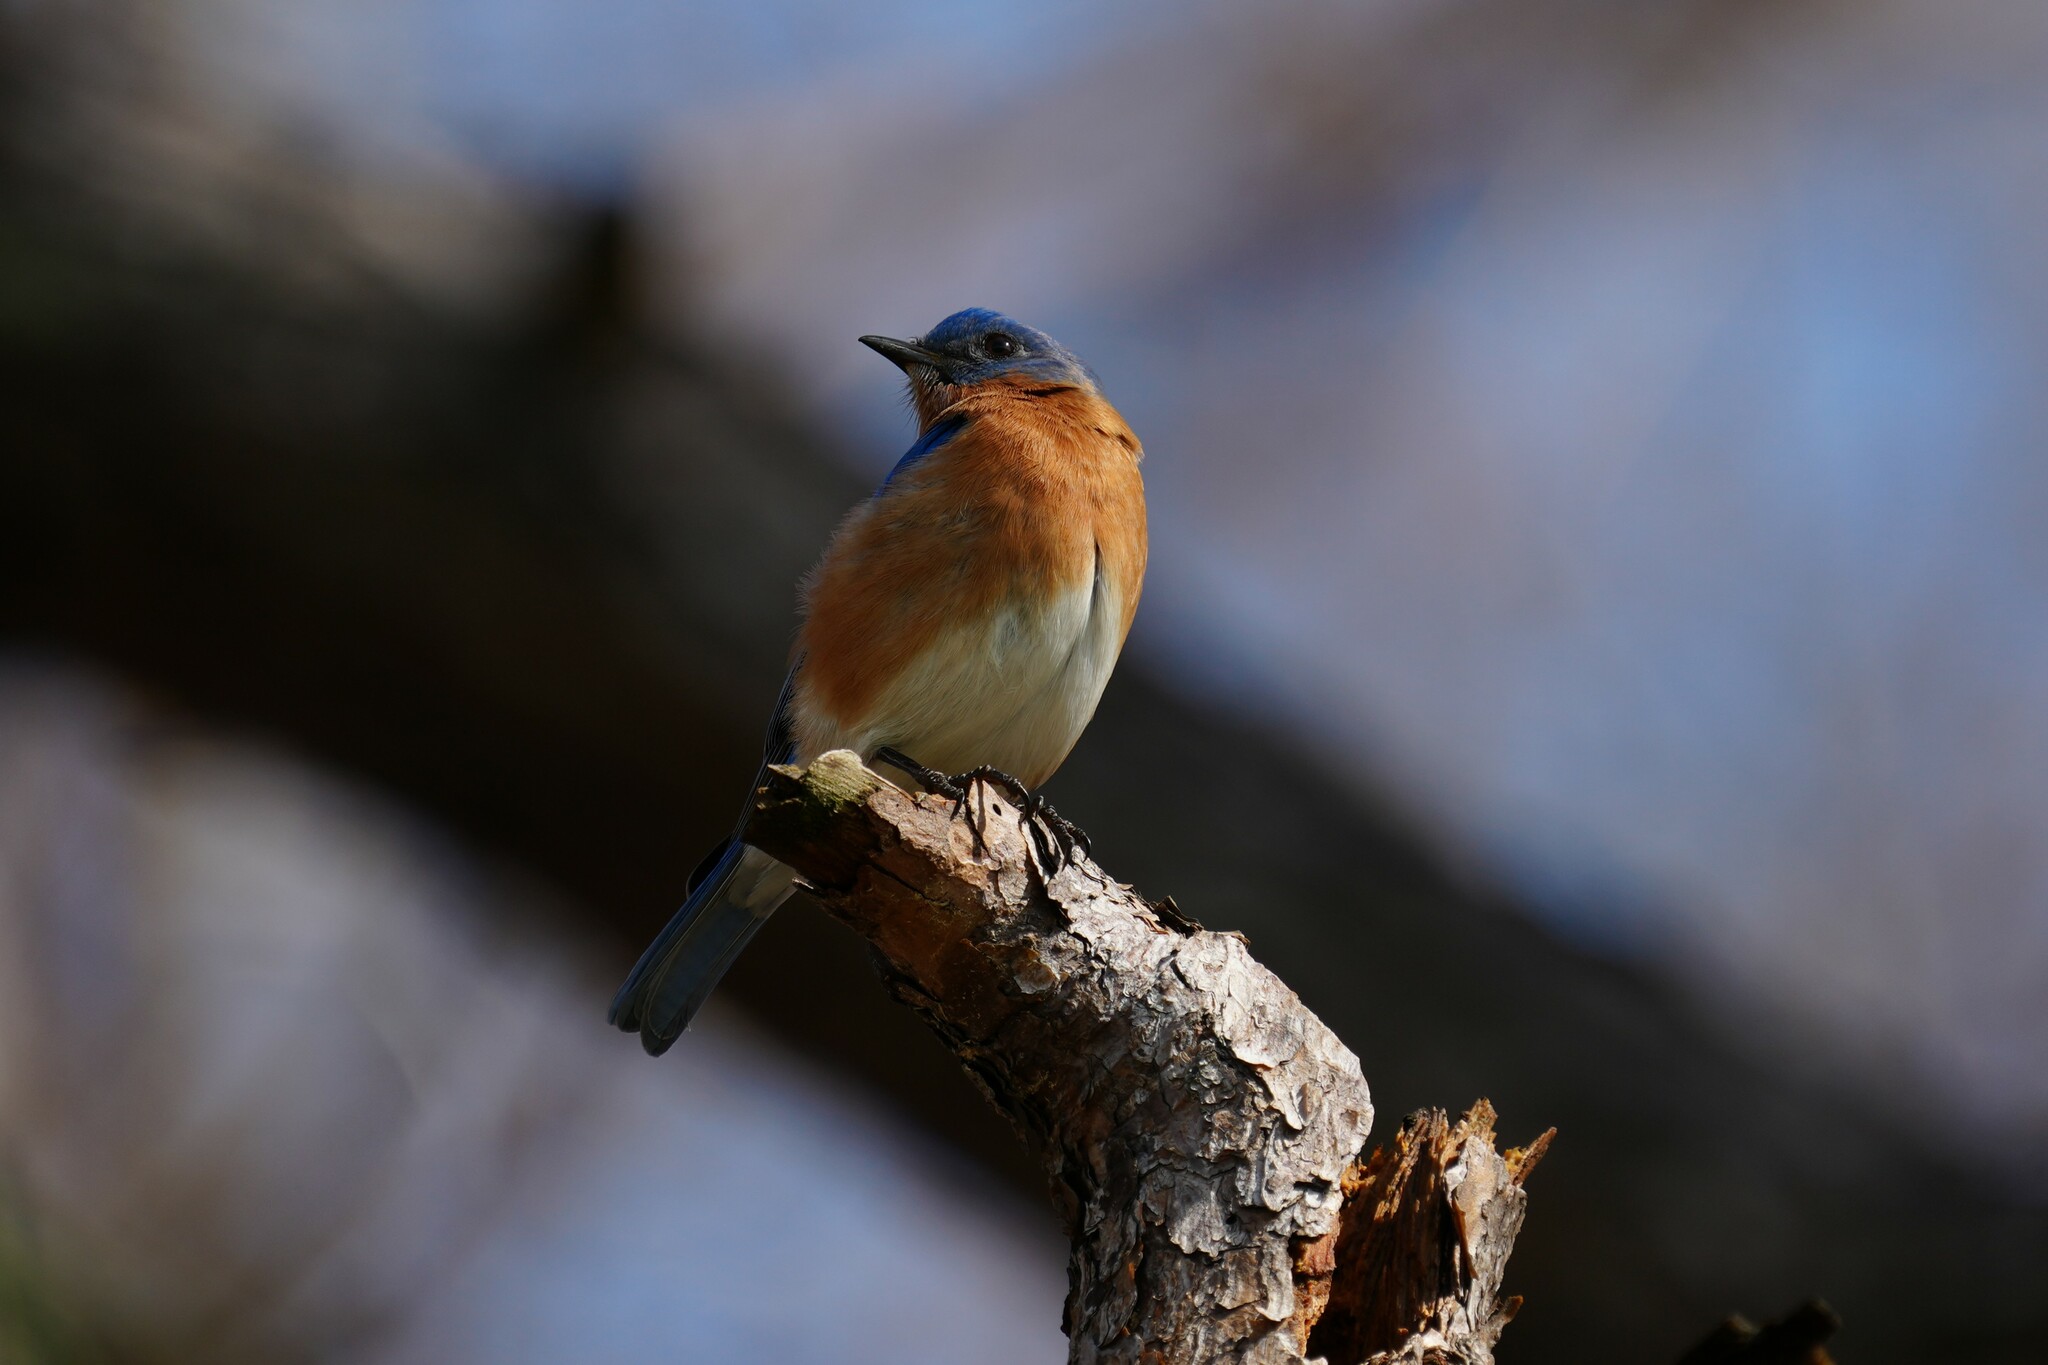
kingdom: Animalia
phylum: Chordata
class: Aves
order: Passeriformes
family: Turdidae
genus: Sialia
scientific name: Sialia sialis
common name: Eastern bluebird
